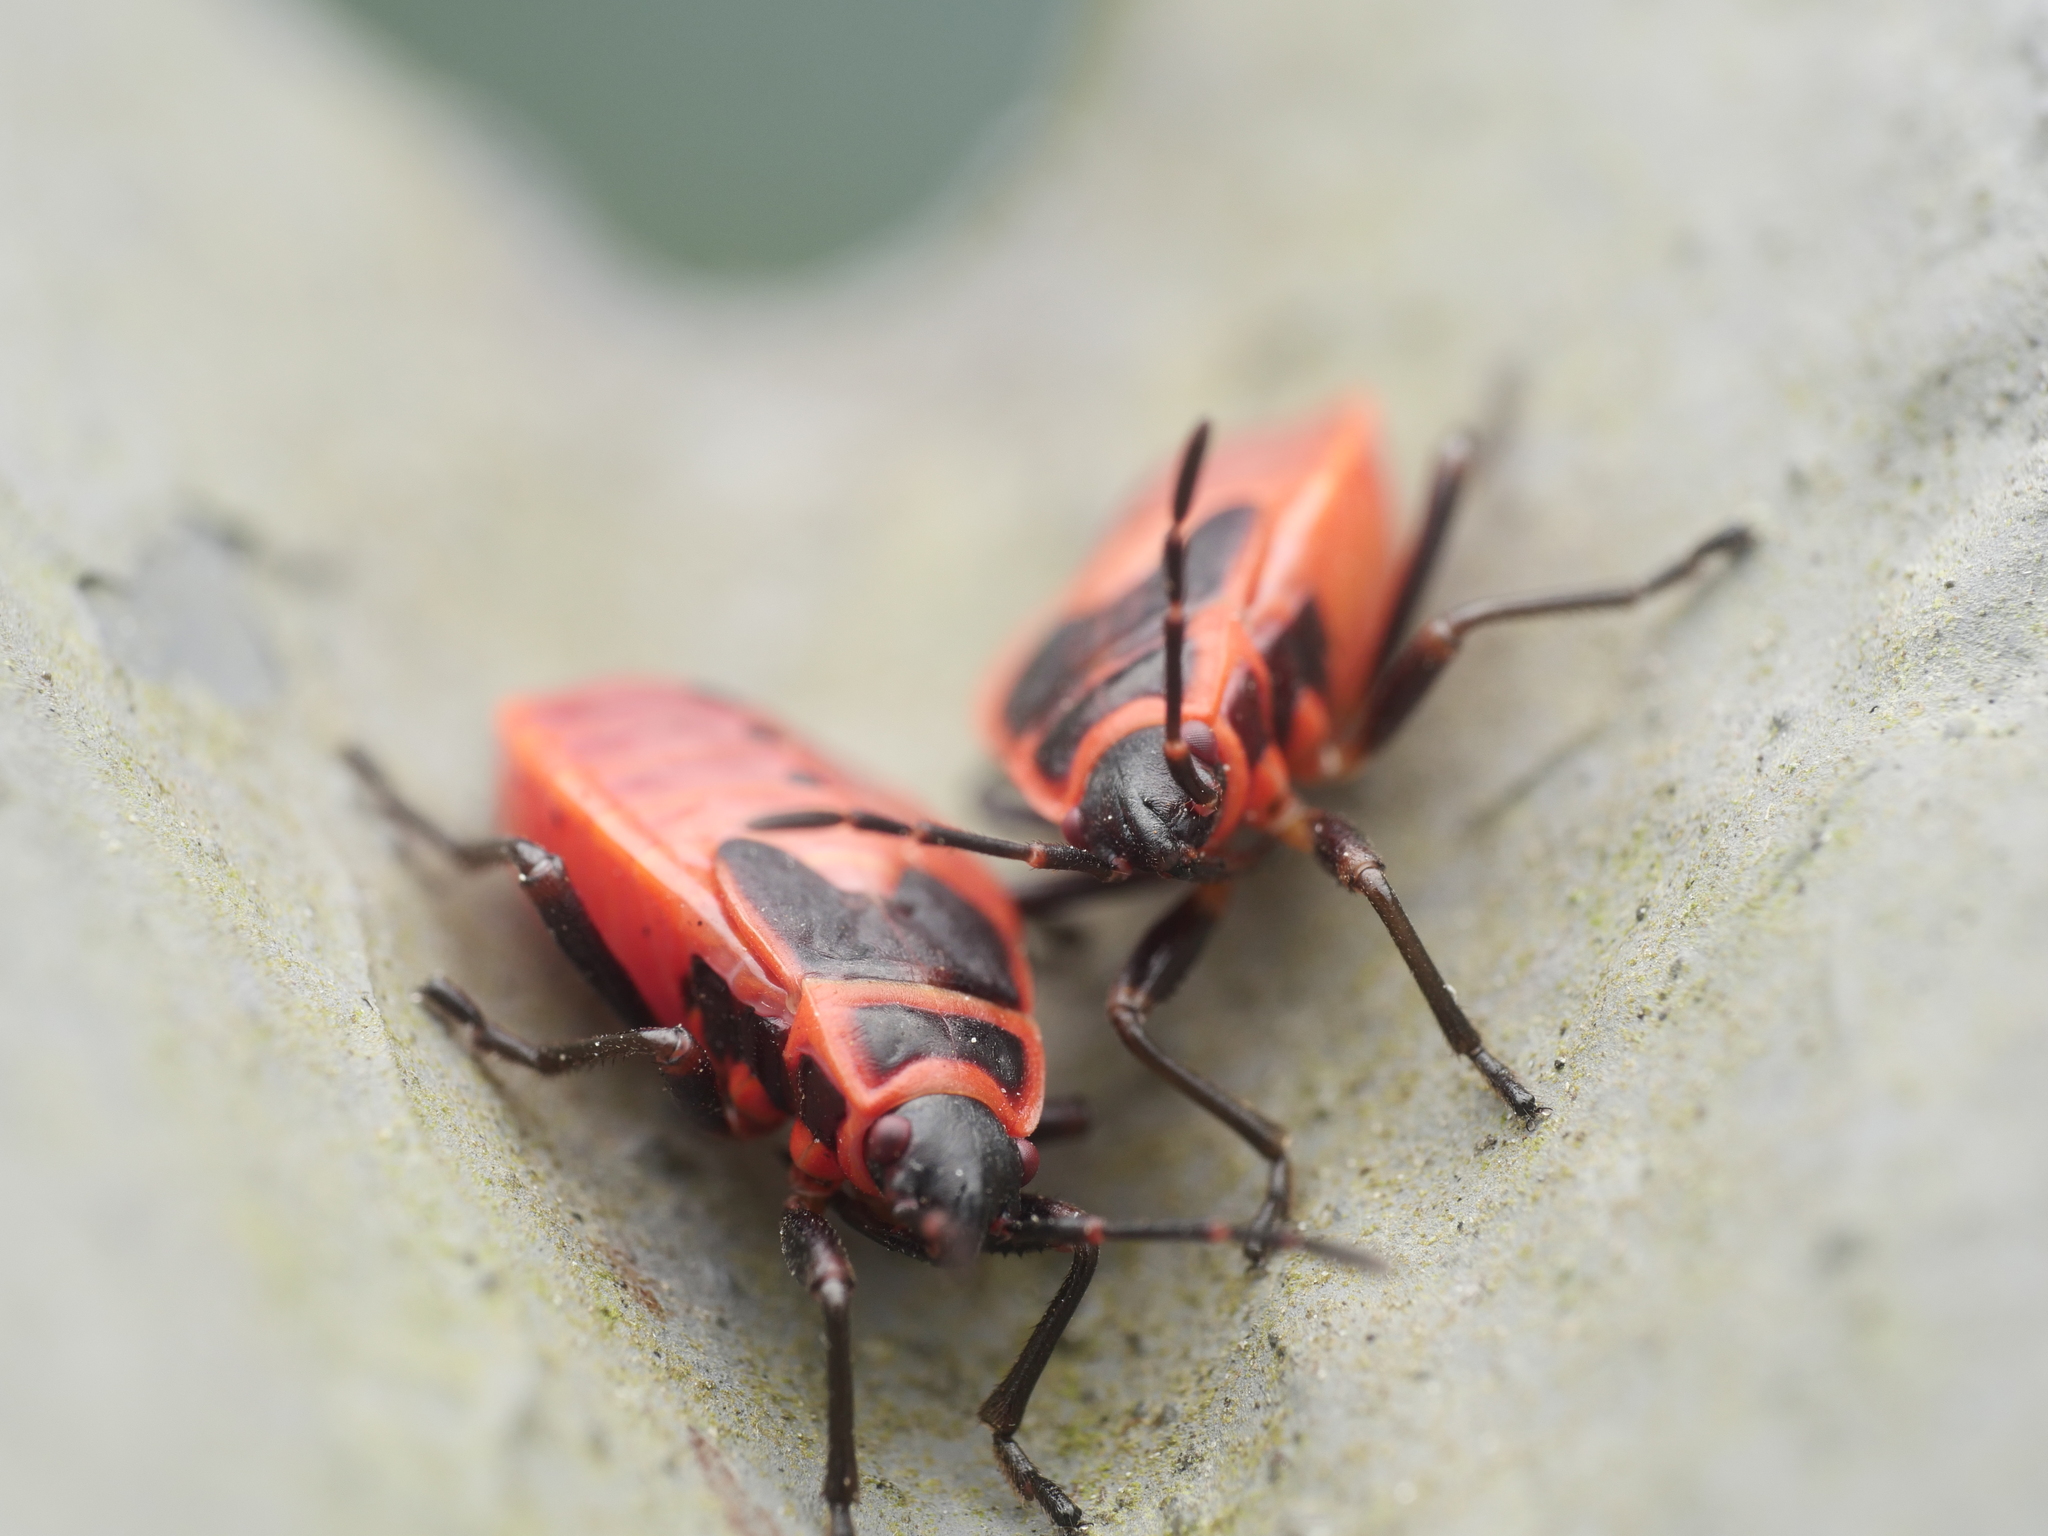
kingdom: Animalia
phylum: Arthropoda
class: Insecta
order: Hemiptera
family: Pyrrhocoridae
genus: Pyrrhocoris
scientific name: Pyrrhocoris apterus
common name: Firebug
